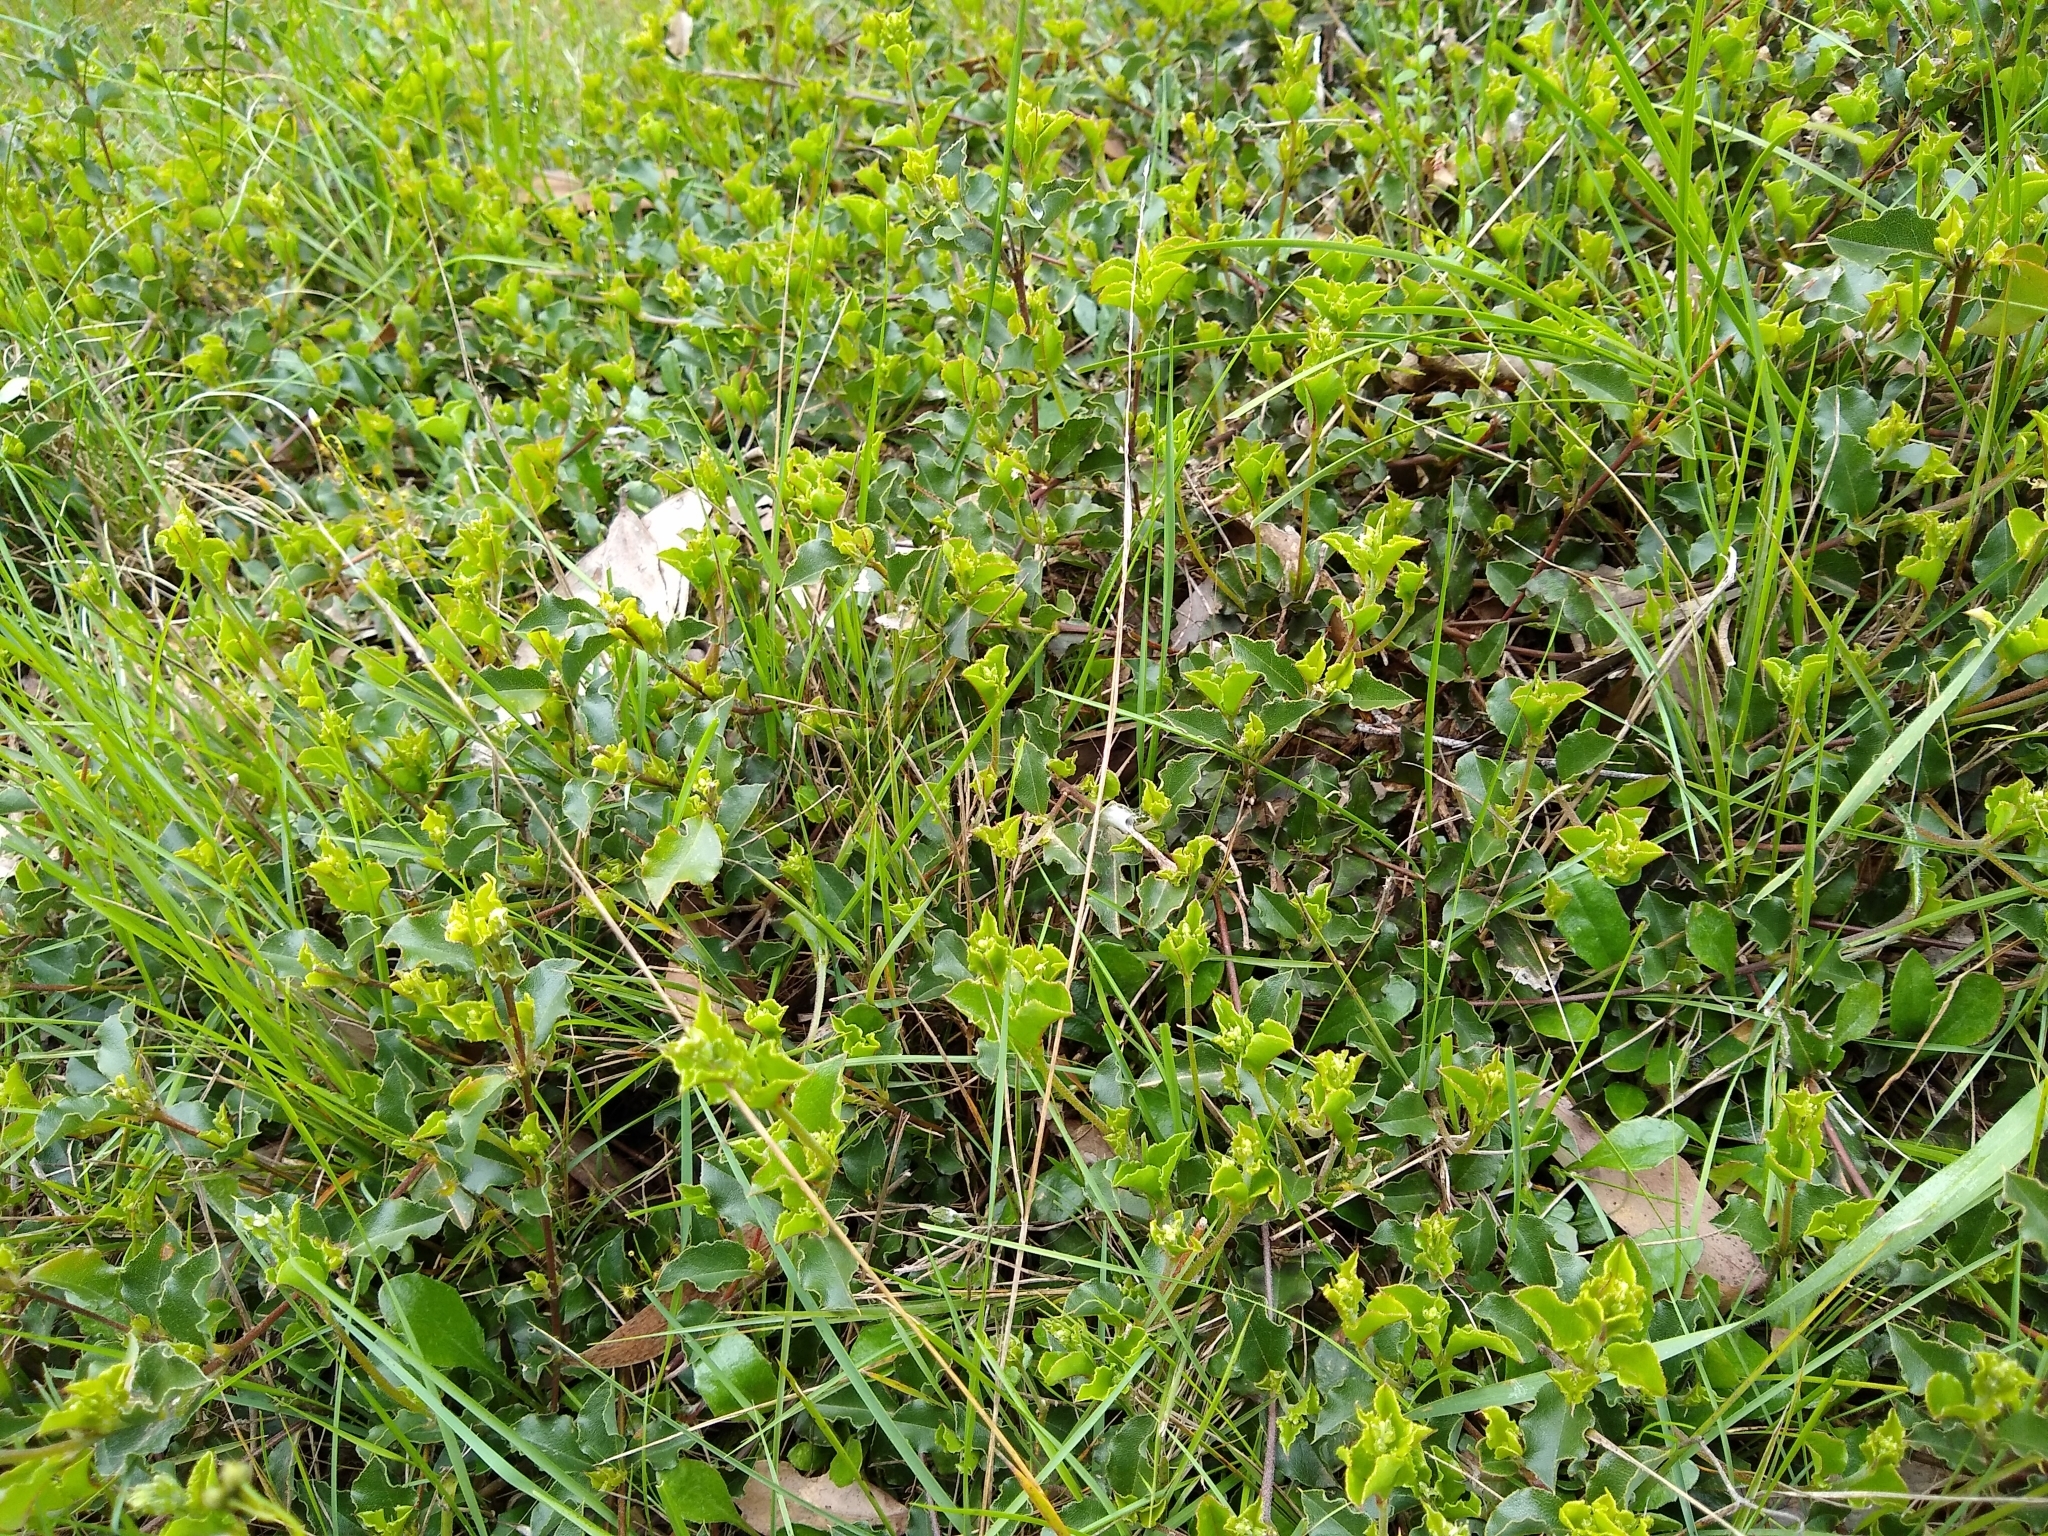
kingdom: Plantae
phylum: Tracheophyta
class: Magnoliopsida
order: Fabales
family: Fabaceae
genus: Podolobium
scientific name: Podolobium procumbens
